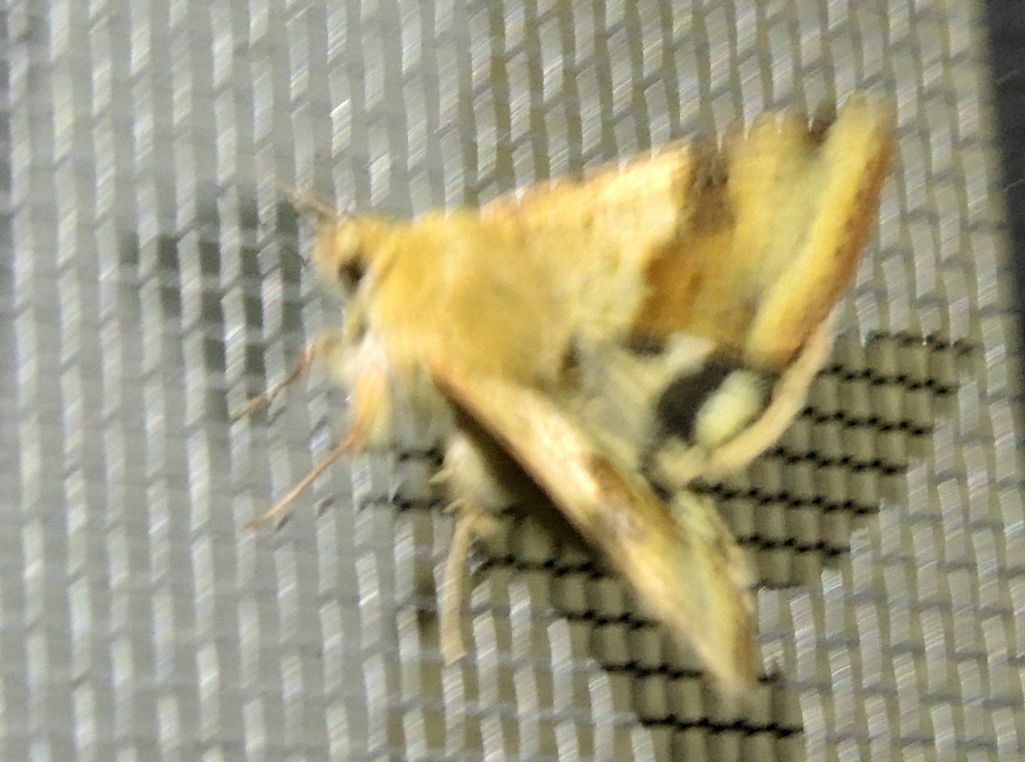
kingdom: Animalia
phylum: Arthropoda
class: Insecta
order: Lepidoptera
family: Noctuidae
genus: Heliothis
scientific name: Heliothis viriplaca
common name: Marbled clover
